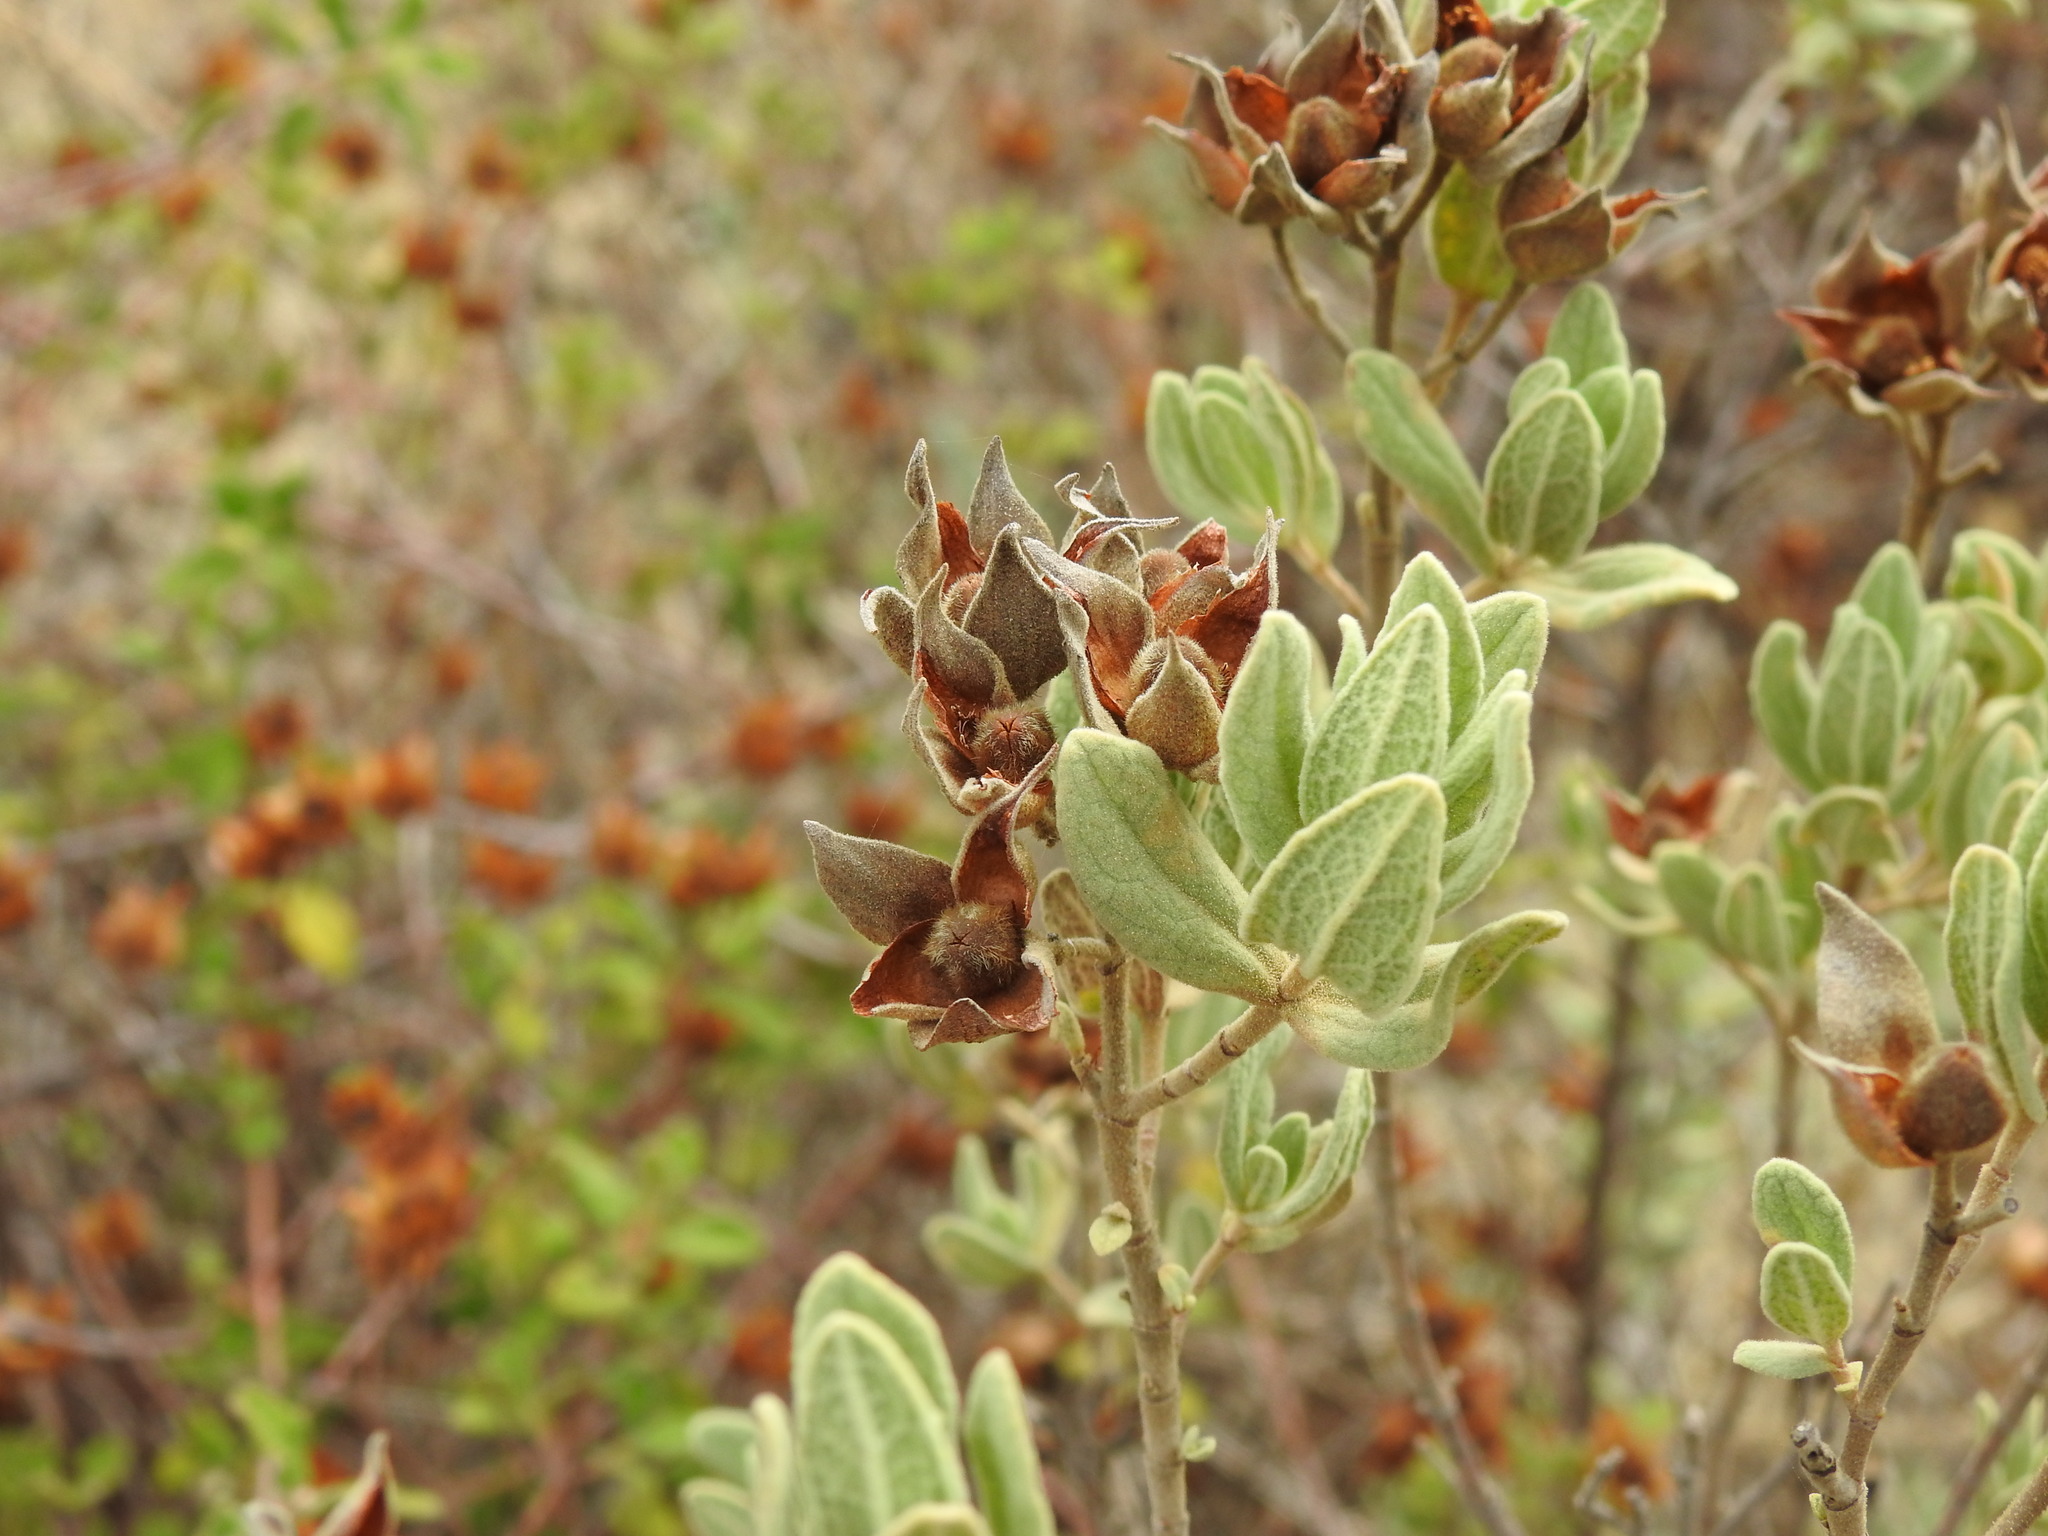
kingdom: Plantae
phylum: Tracheophyta
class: Magnoliopsida
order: Malvales
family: Cistaceae
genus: Cistus
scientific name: Cistus albidus
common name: White-leaf rock-rose
